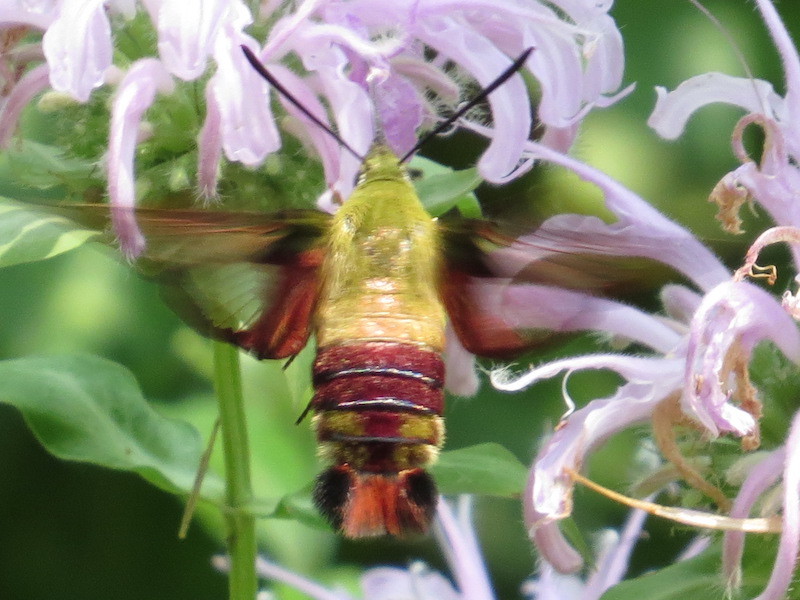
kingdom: Animalia
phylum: Arthropoda
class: Insecta
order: Lepidoptera
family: Sphingidae
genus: Hemaris
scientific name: Hemaris thysbe
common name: Common clear-wing
